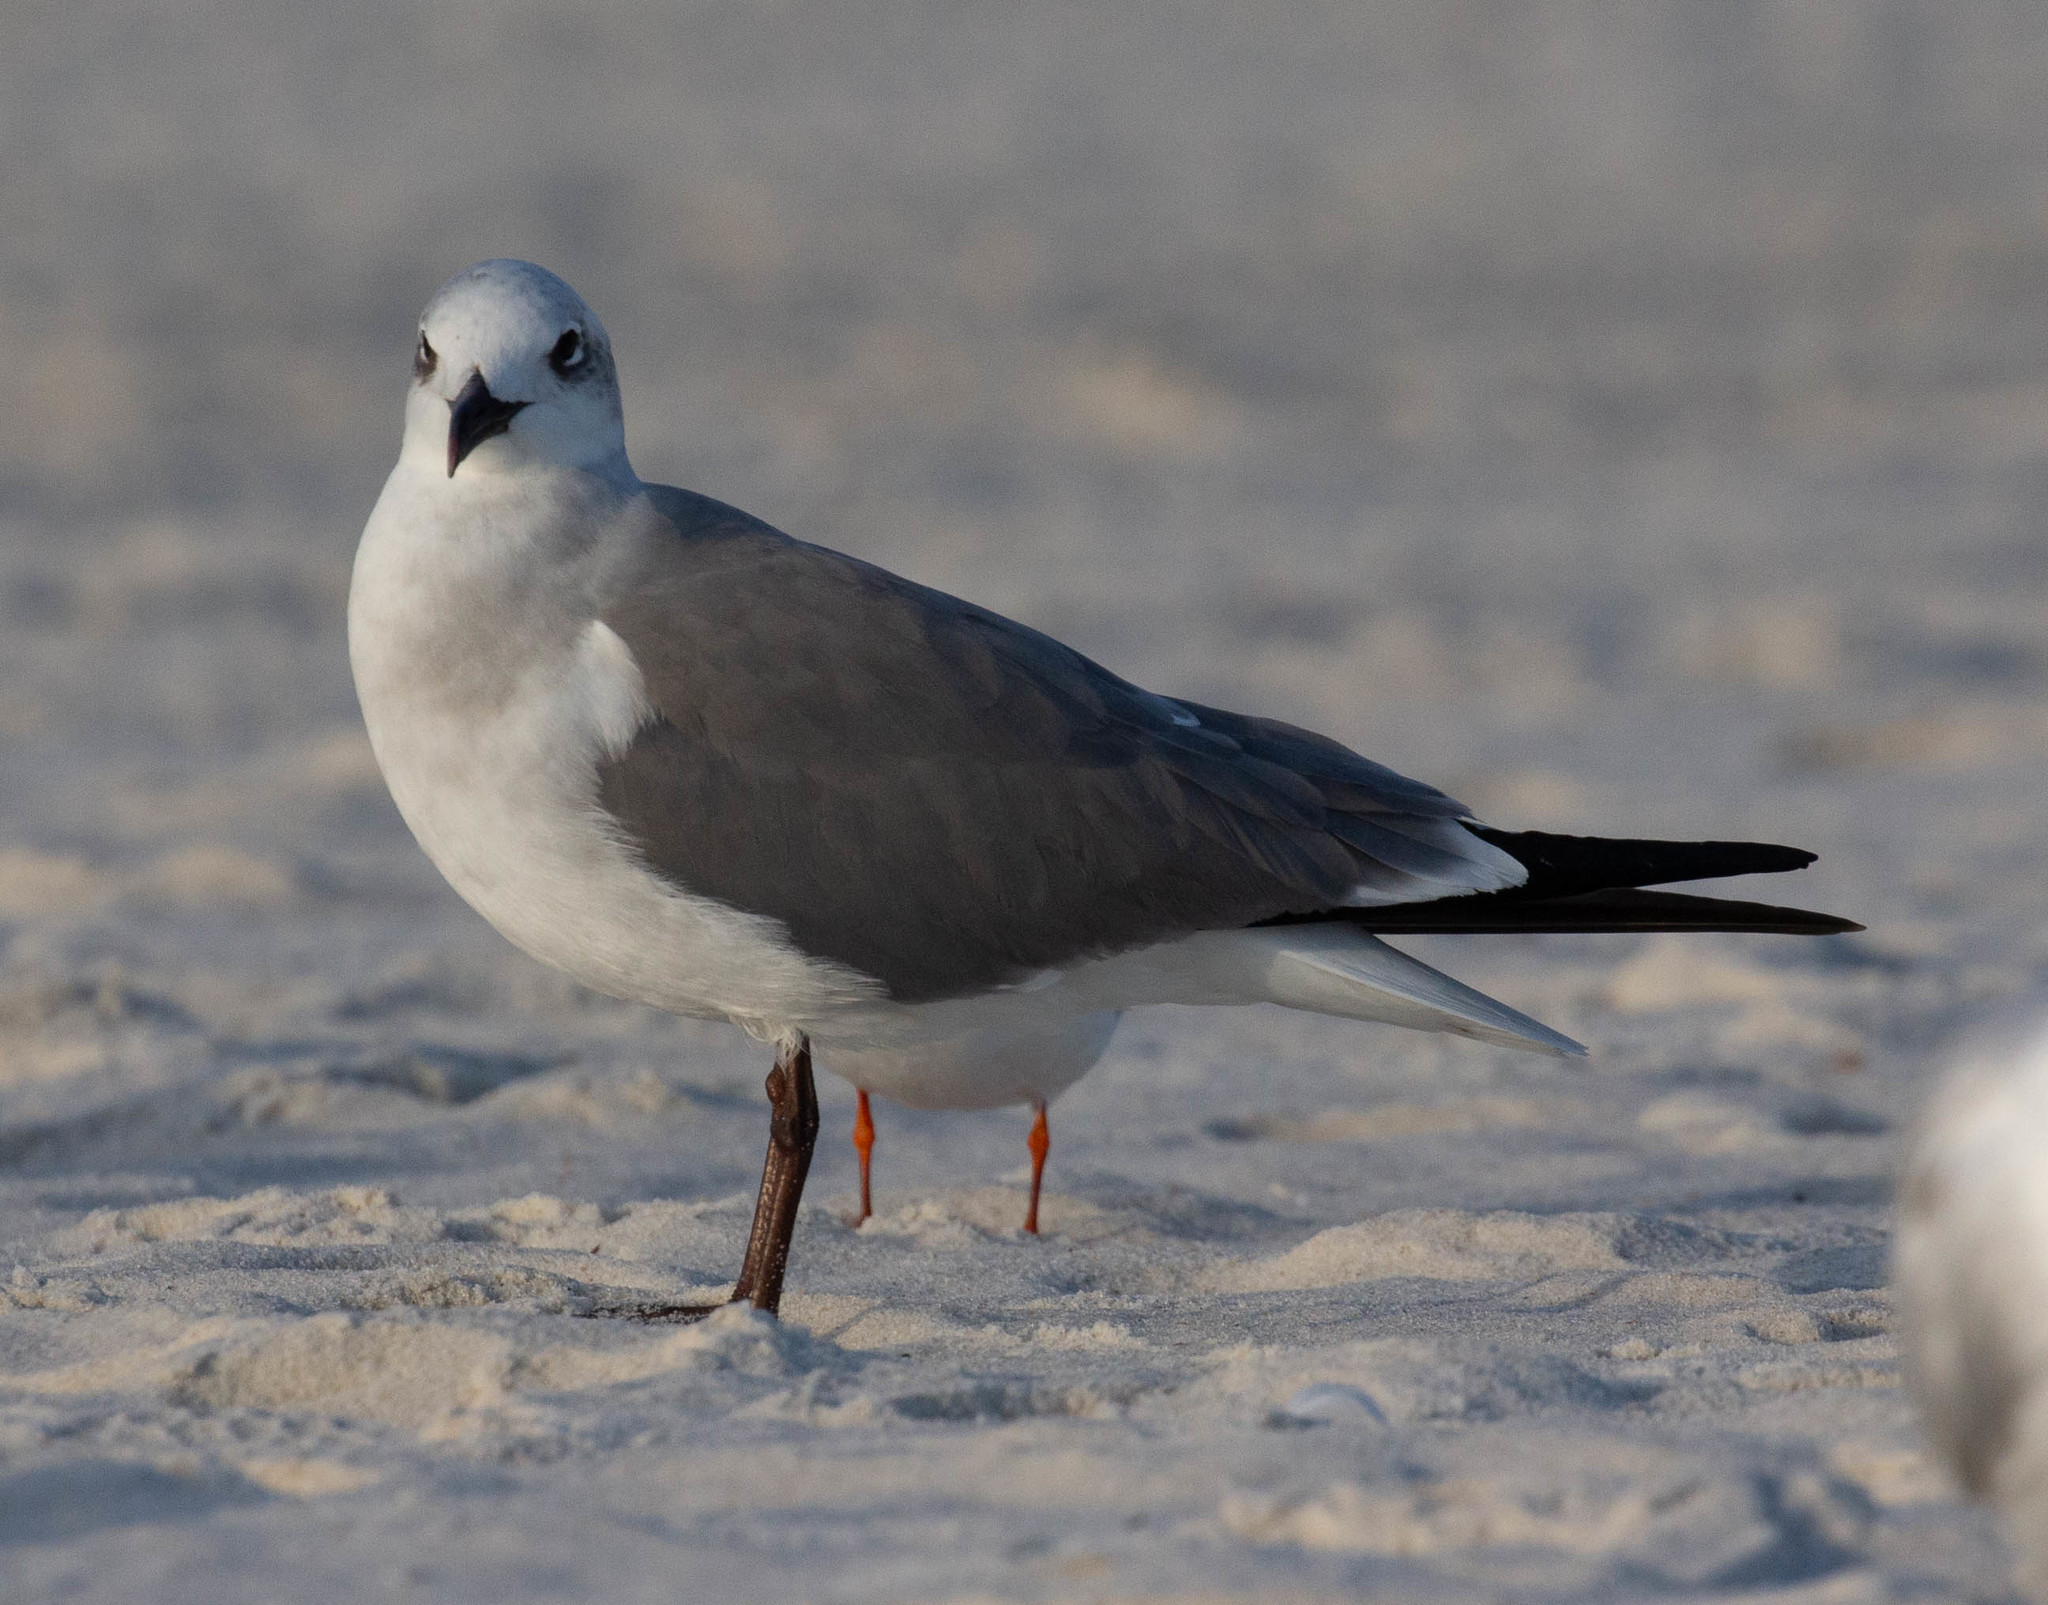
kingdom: Animalia
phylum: Chordata
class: Aves
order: Charadriiformes
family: Laridae
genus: Leucophaeus
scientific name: Leucophaeus atricilla
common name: Laughing gull
